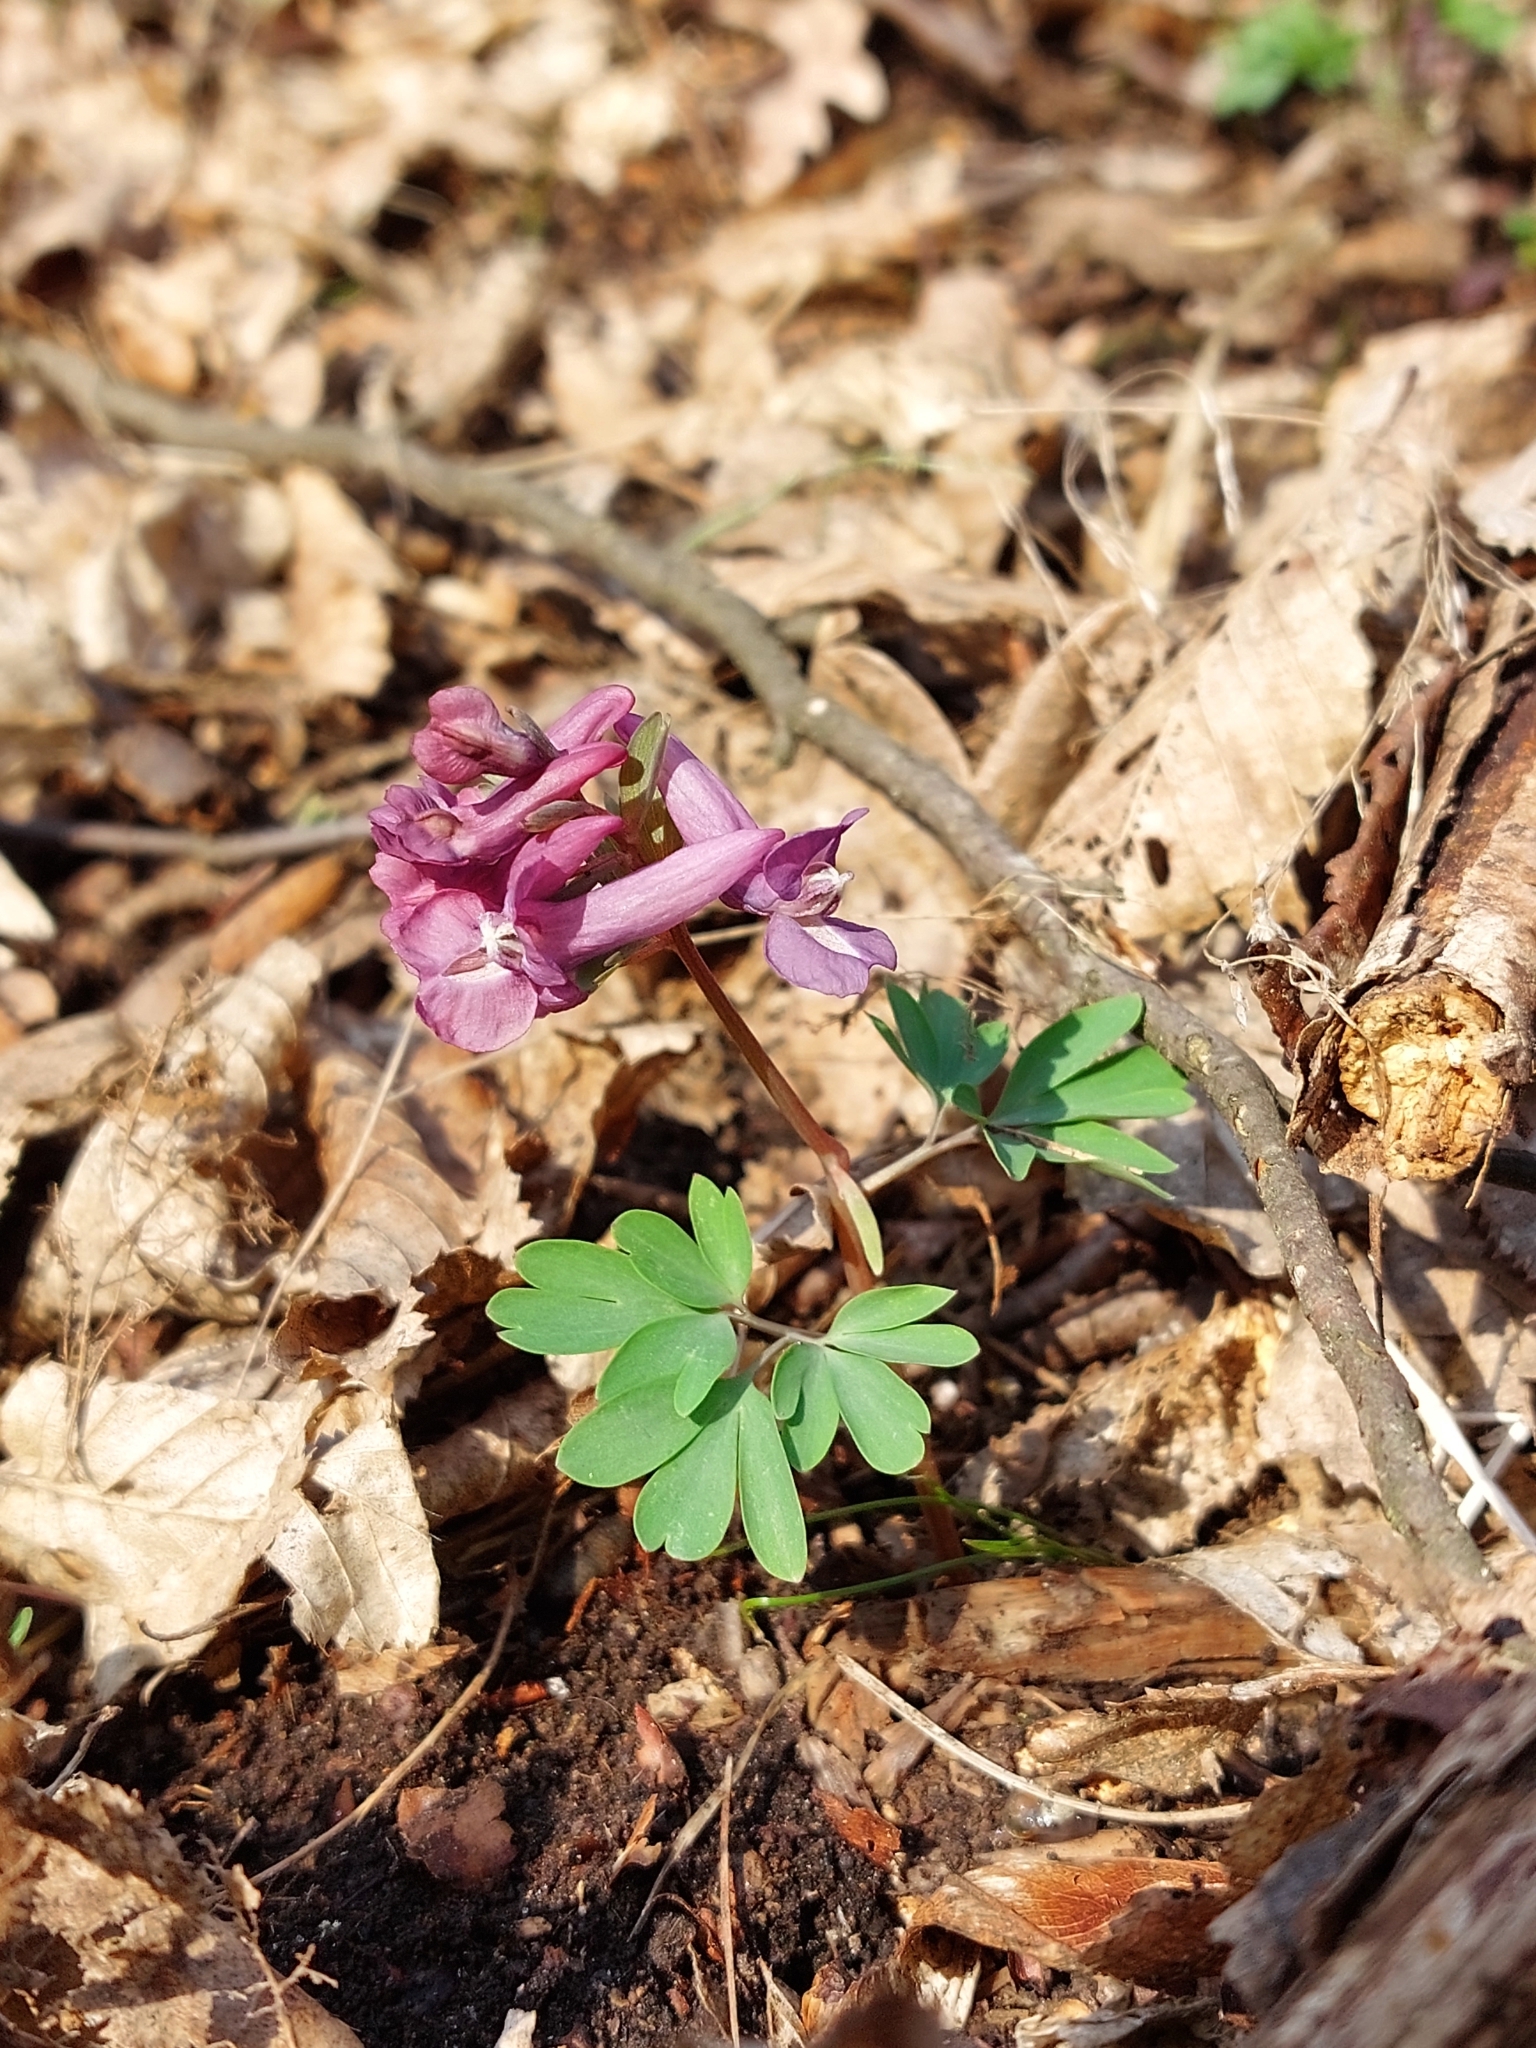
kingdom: Plantae
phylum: Tracheophyta
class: Magnoliopsida
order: Ranunculales
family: Papaveraceae
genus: Corydalis
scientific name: Corydalis solida
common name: Bird-in-a-bush
